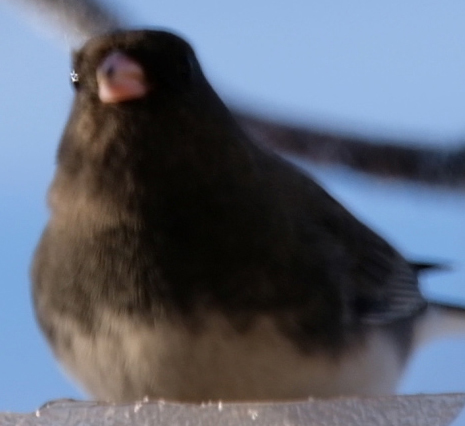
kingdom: Animalia
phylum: Chordata
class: Aves
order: Passeriformes
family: Passerellidae
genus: Junco
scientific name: Junco hyemalis
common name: Dark-eyed junco
